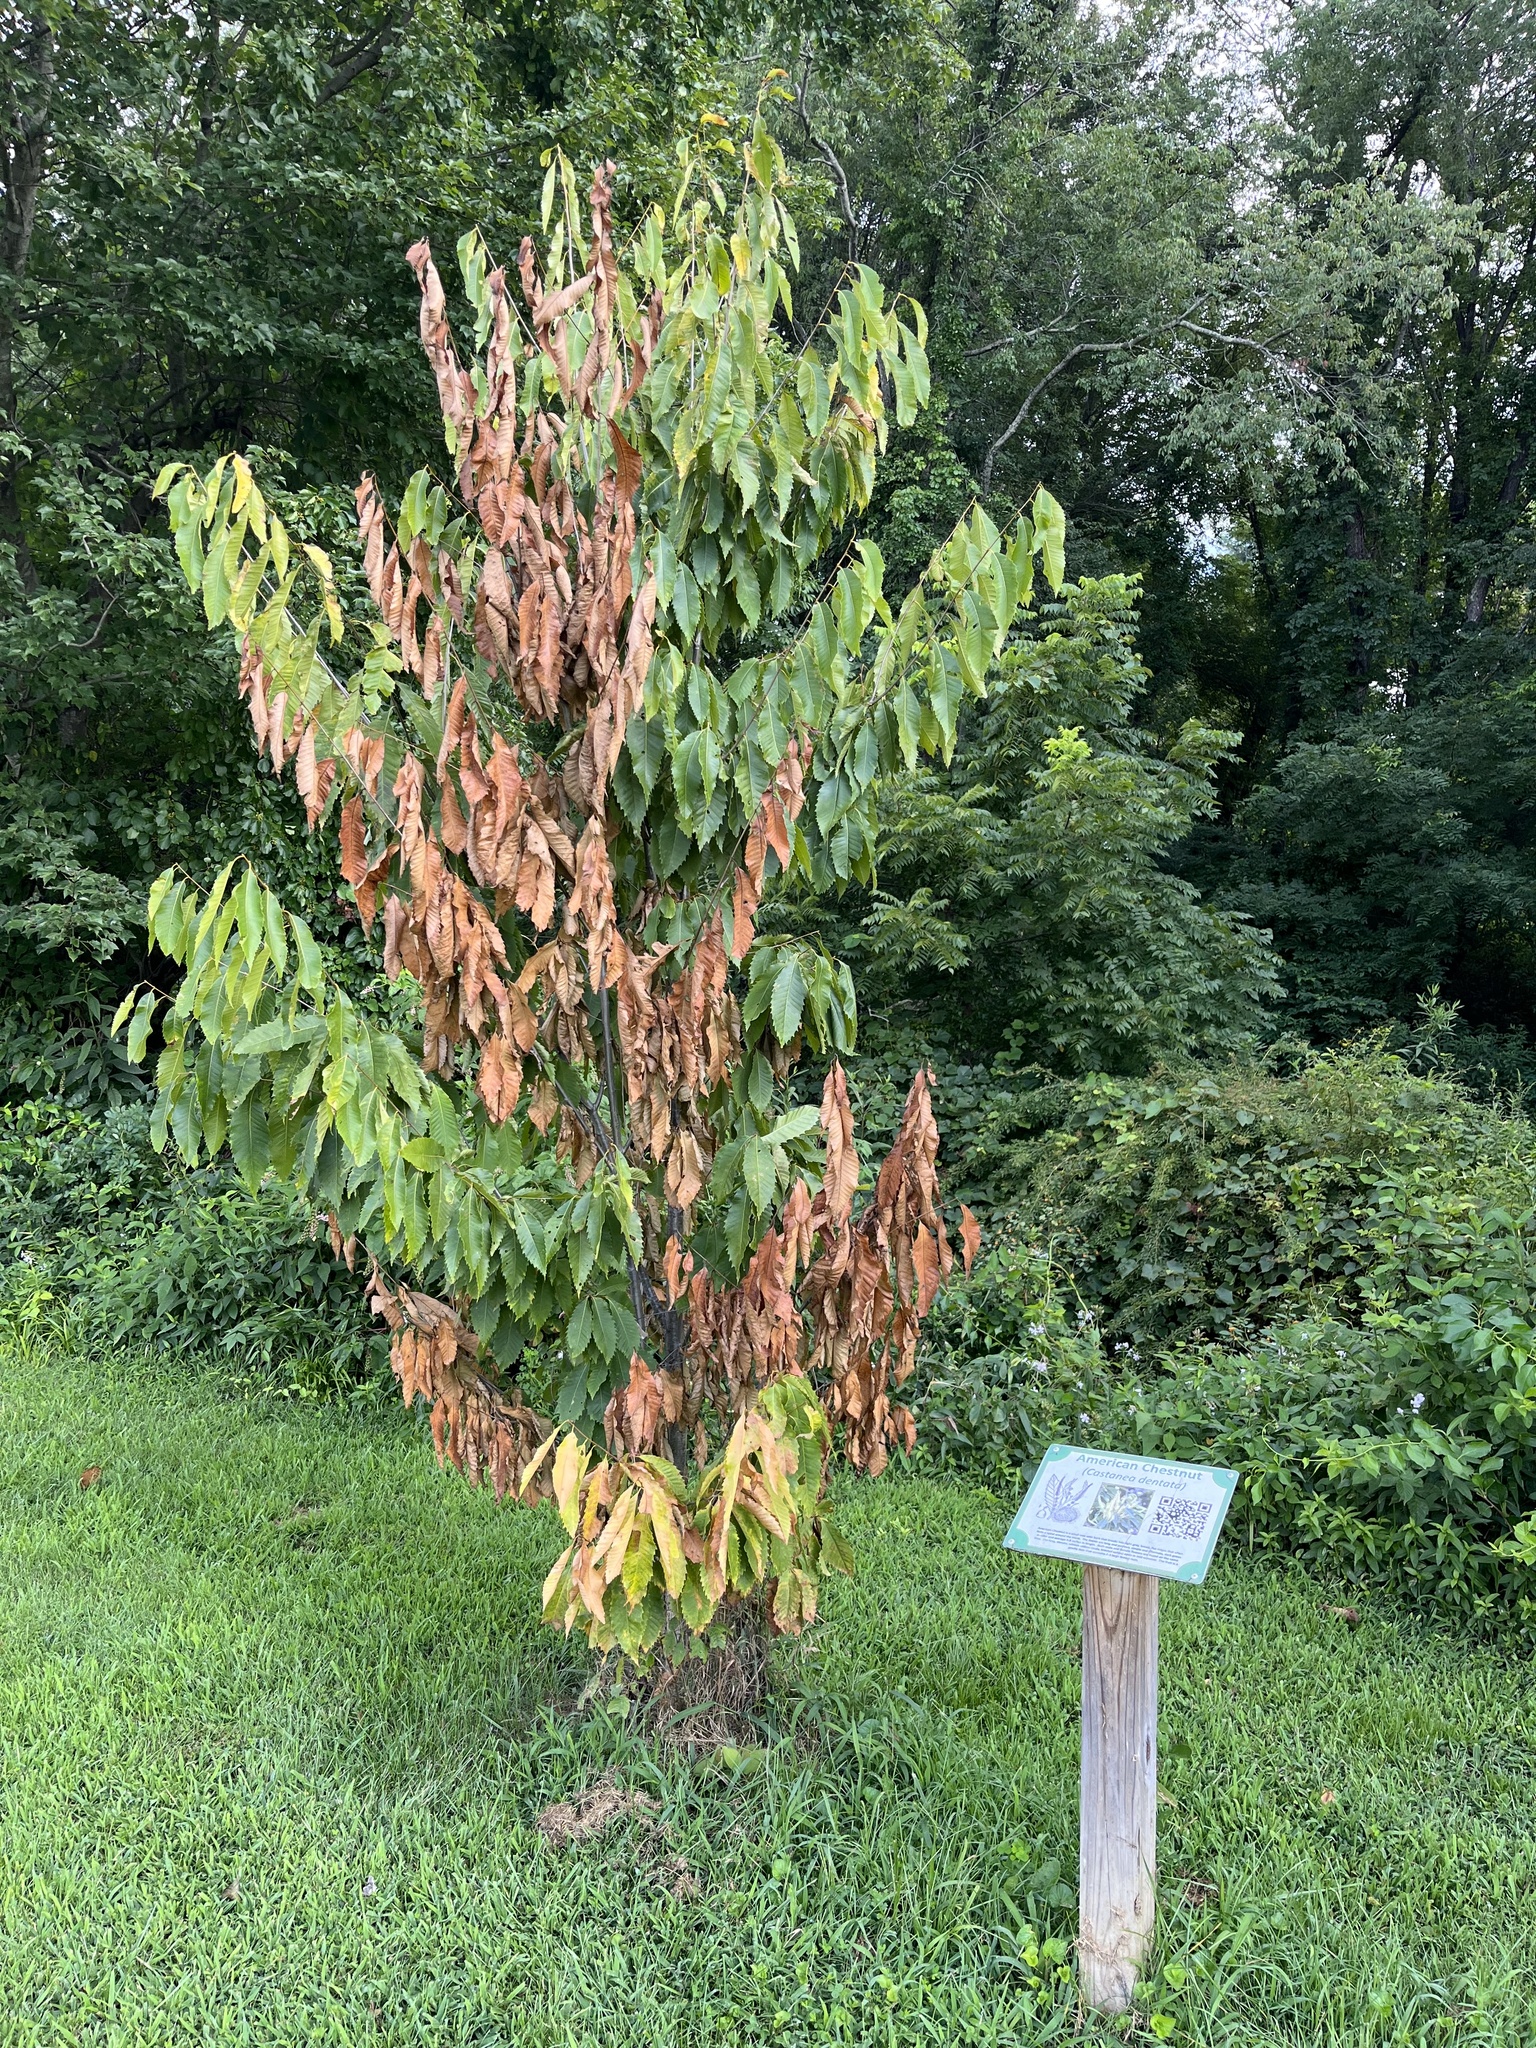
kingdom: Plantae
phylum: Tracheophyta
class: Magnoliopsida
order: Fagales
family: Fagaceae
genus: Castanea
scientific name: Castanea dentata
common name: American chestnut
